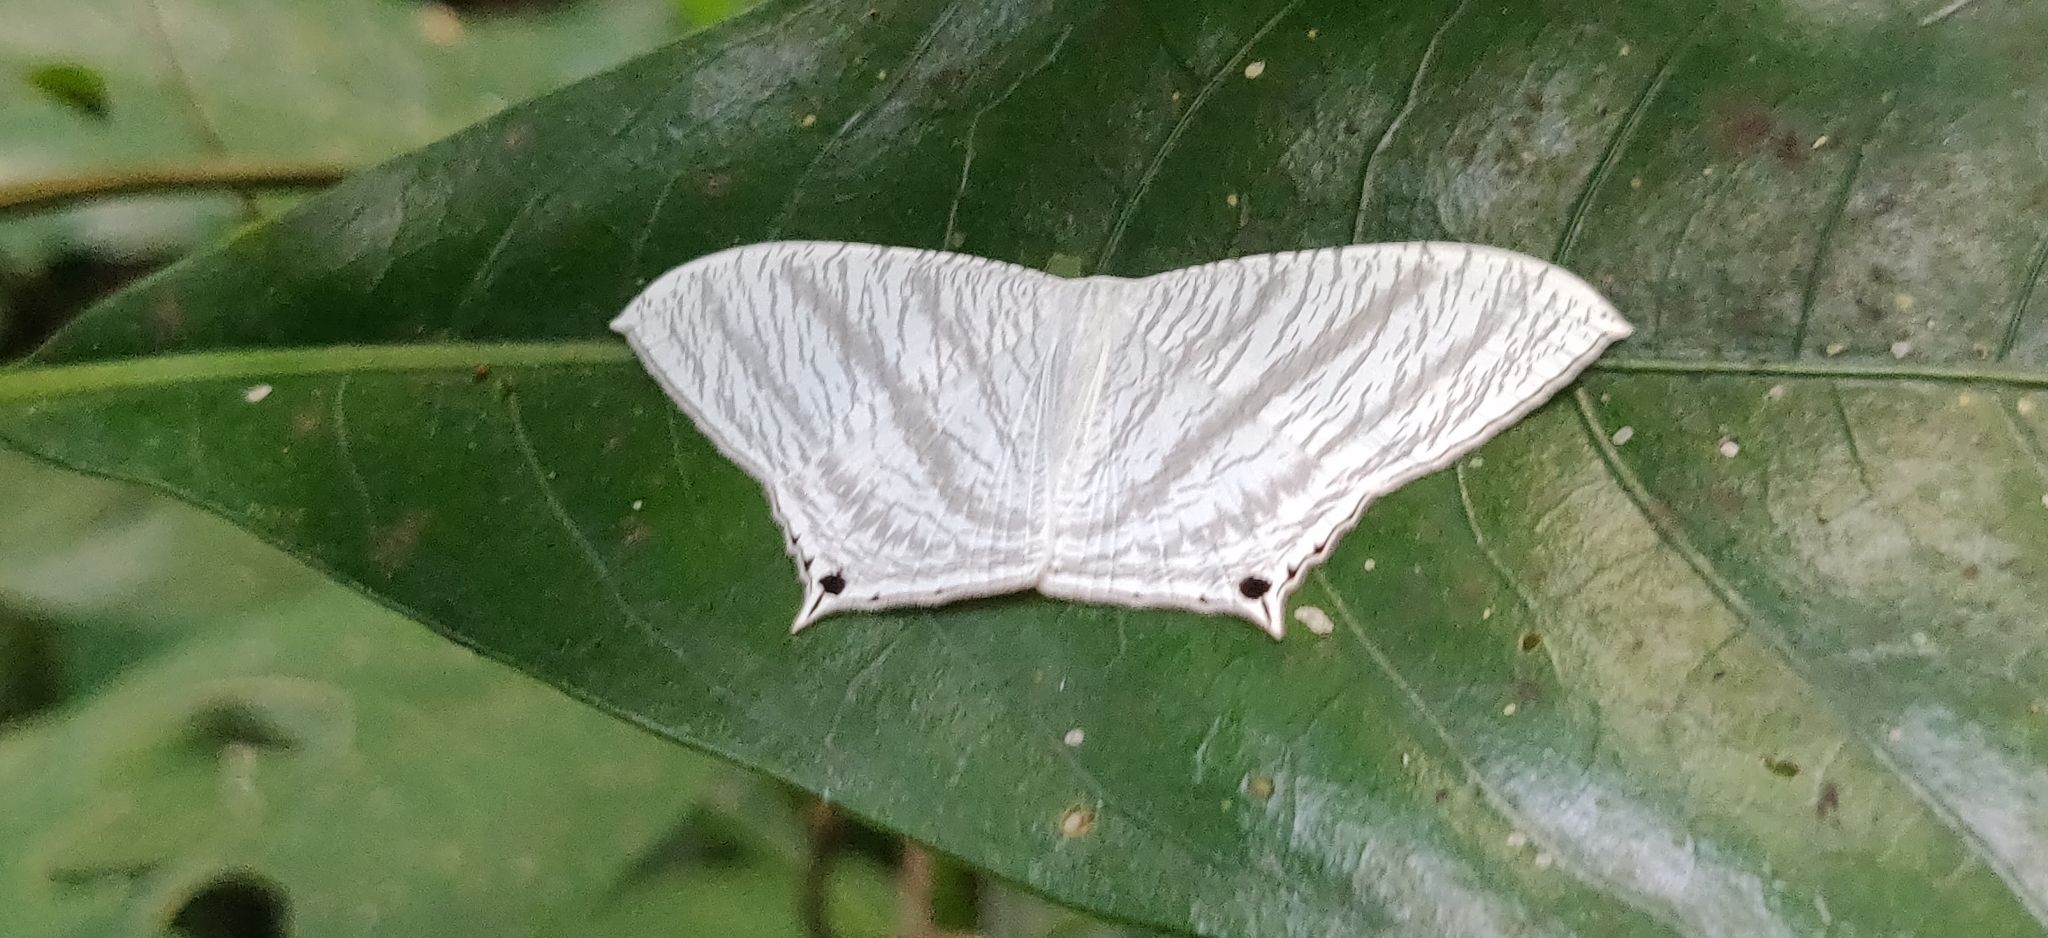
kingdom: Animalia
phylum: Arthropoda
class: Insecta
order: Lepidoptera
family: Uraniidae
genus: Micronia
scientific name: Micronia aculeata
